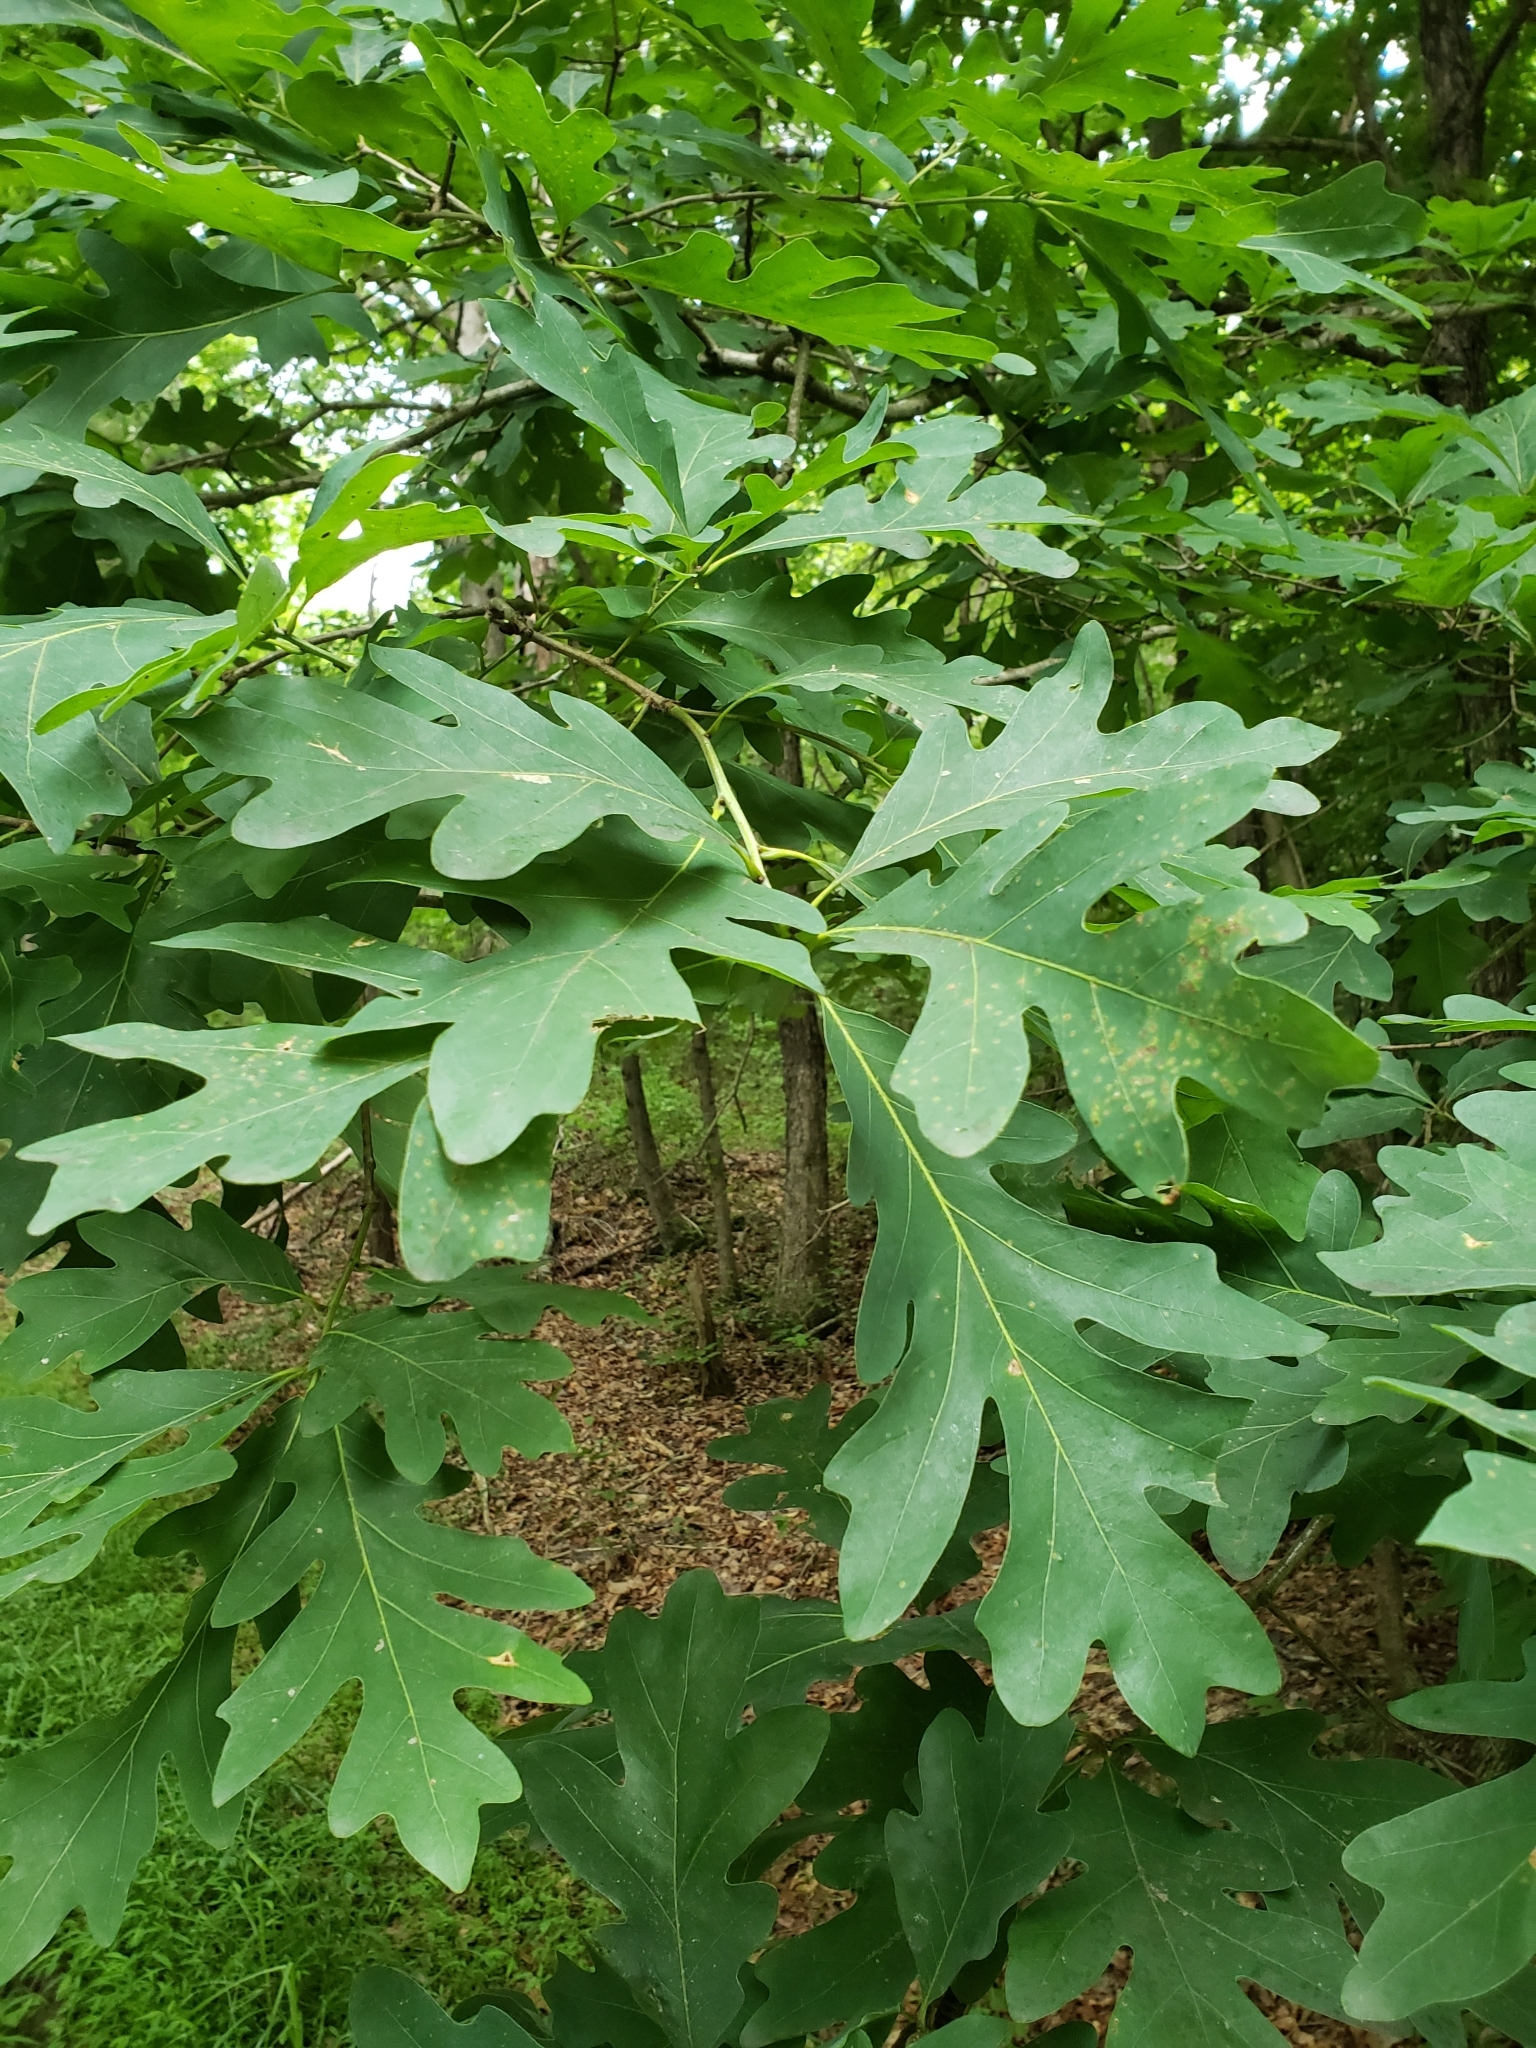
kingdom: Plantae
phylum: Tracheophyta
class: Magnoliopsida
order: Fagales
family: Fagaceae
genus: Quercus
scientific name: Quercus alba
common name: White oak
